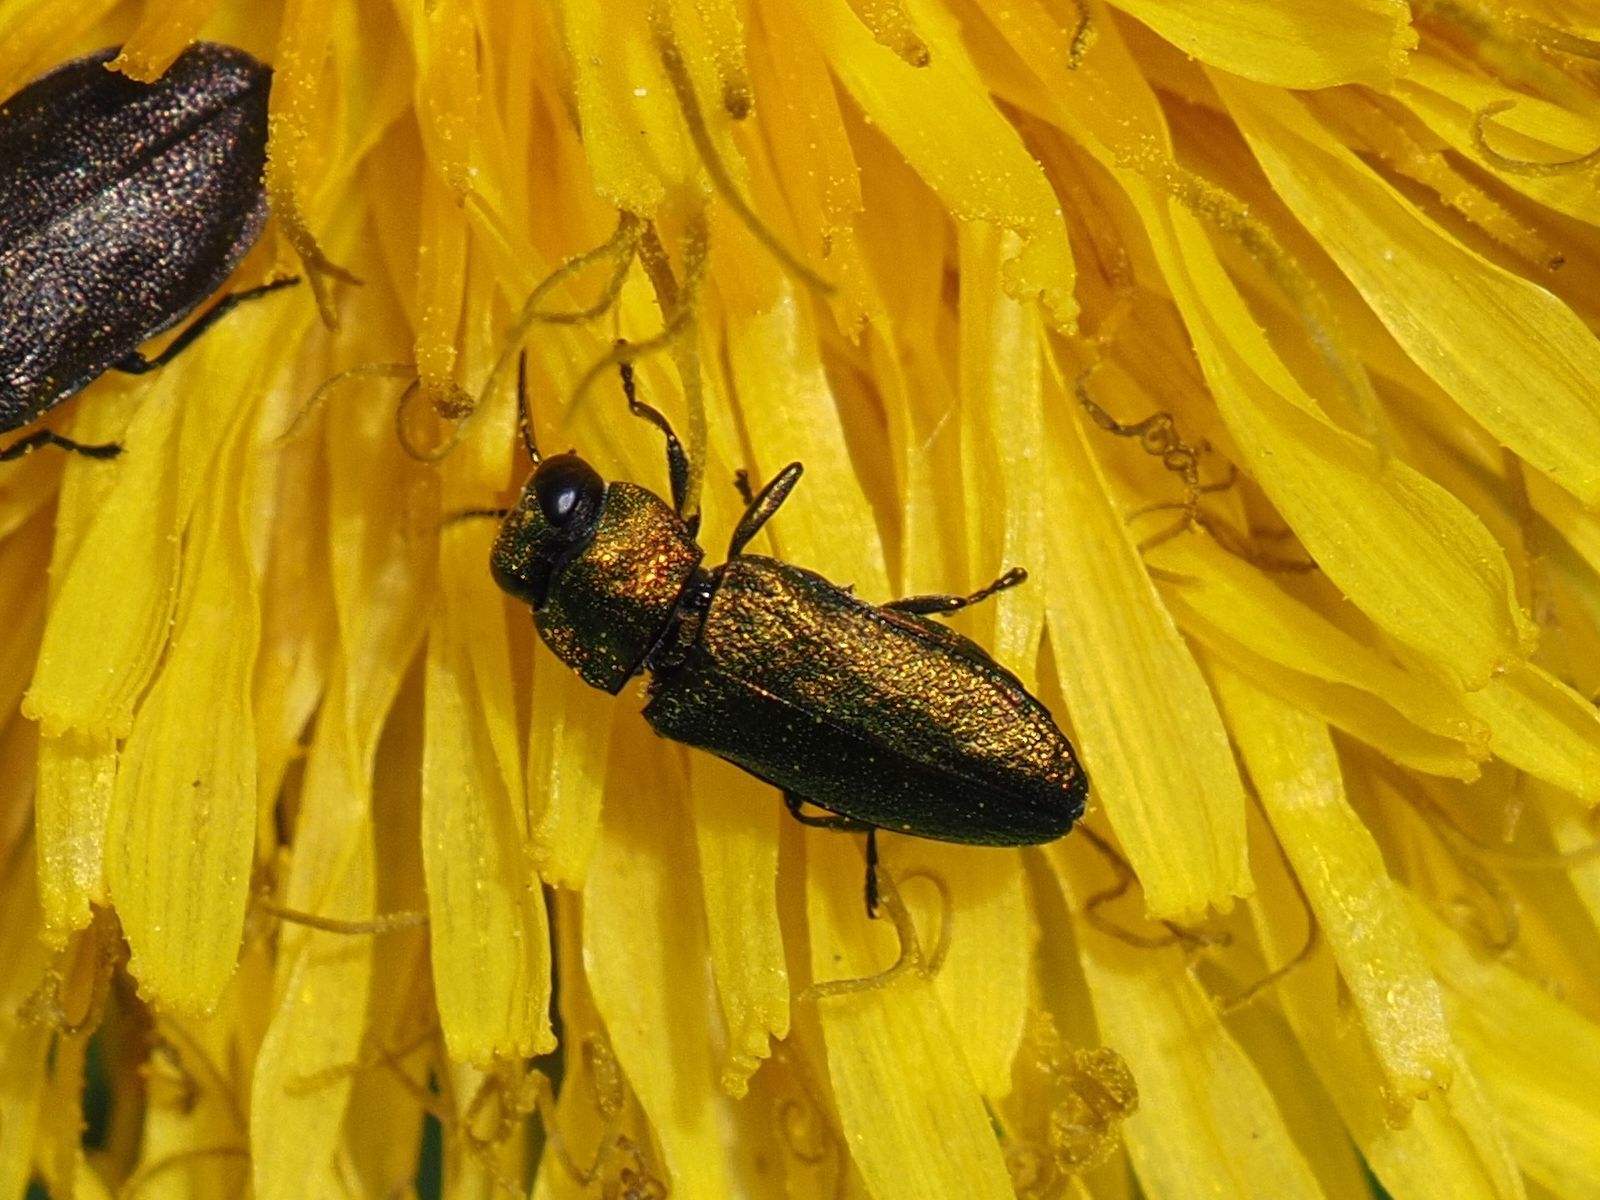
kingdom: Animalia
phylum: Arthropoda
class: Insecta
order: Coleoptera
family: Buprestidae
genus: Anthaxia
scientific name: Anthaxia nitidula
